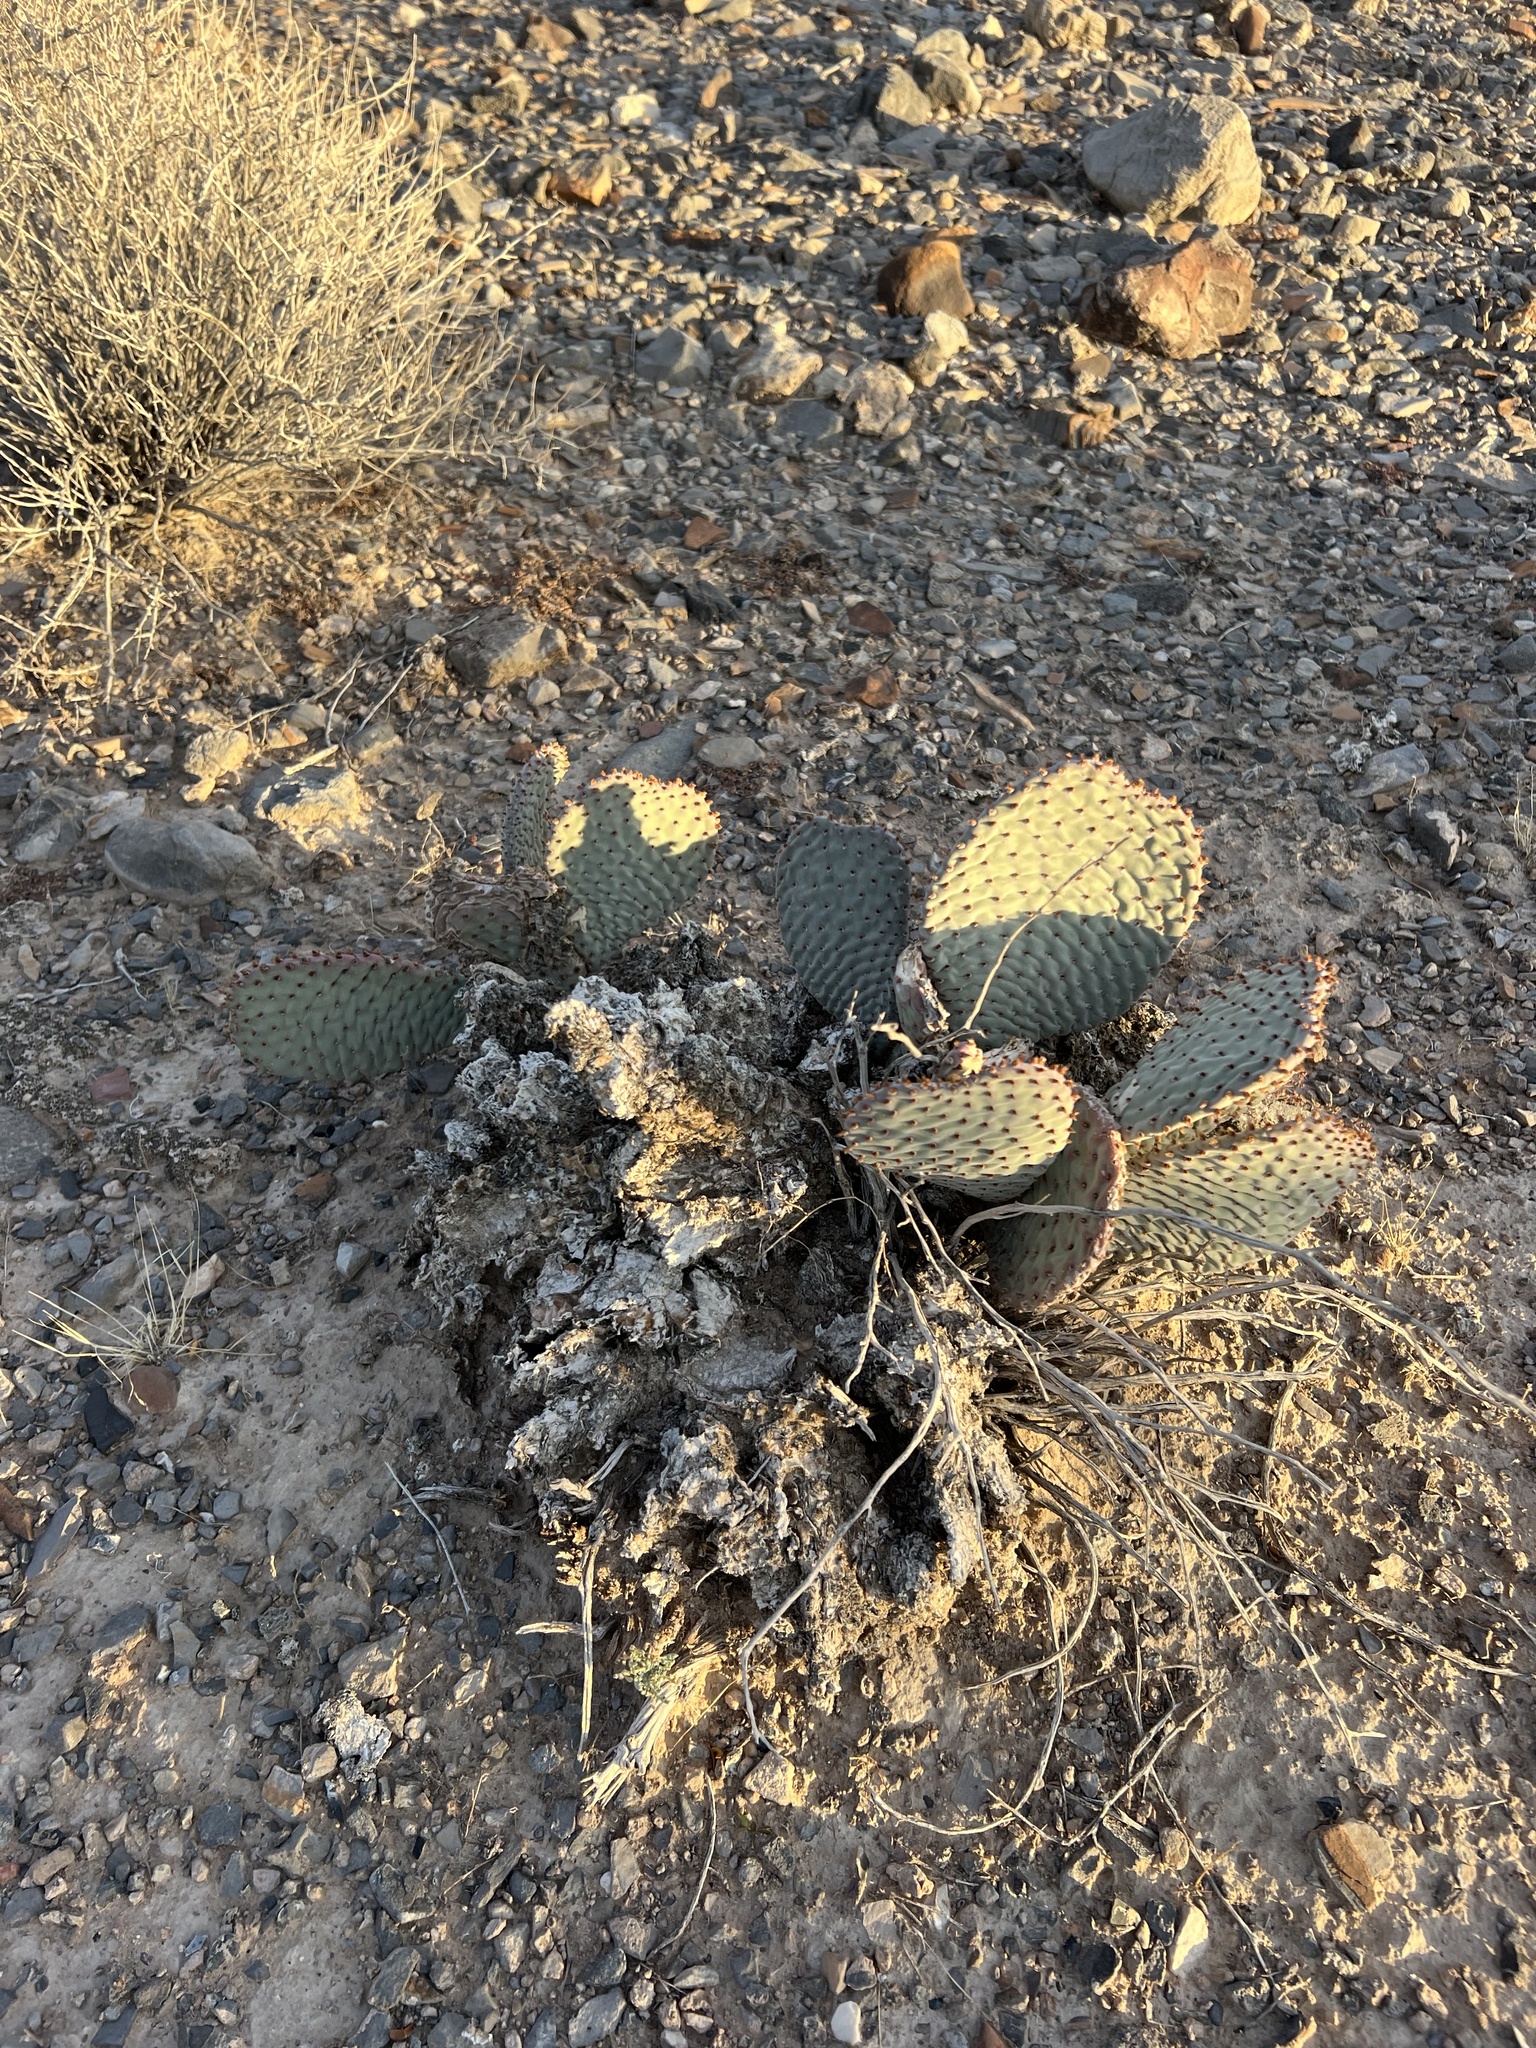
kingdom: Plantae
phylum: Tracheophyta
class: Magnoliopsida
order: Caryophyllales
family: Cactaceae
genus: Opuntia
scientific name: Opuntia basilaris
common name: Beavertail prickly-pear
